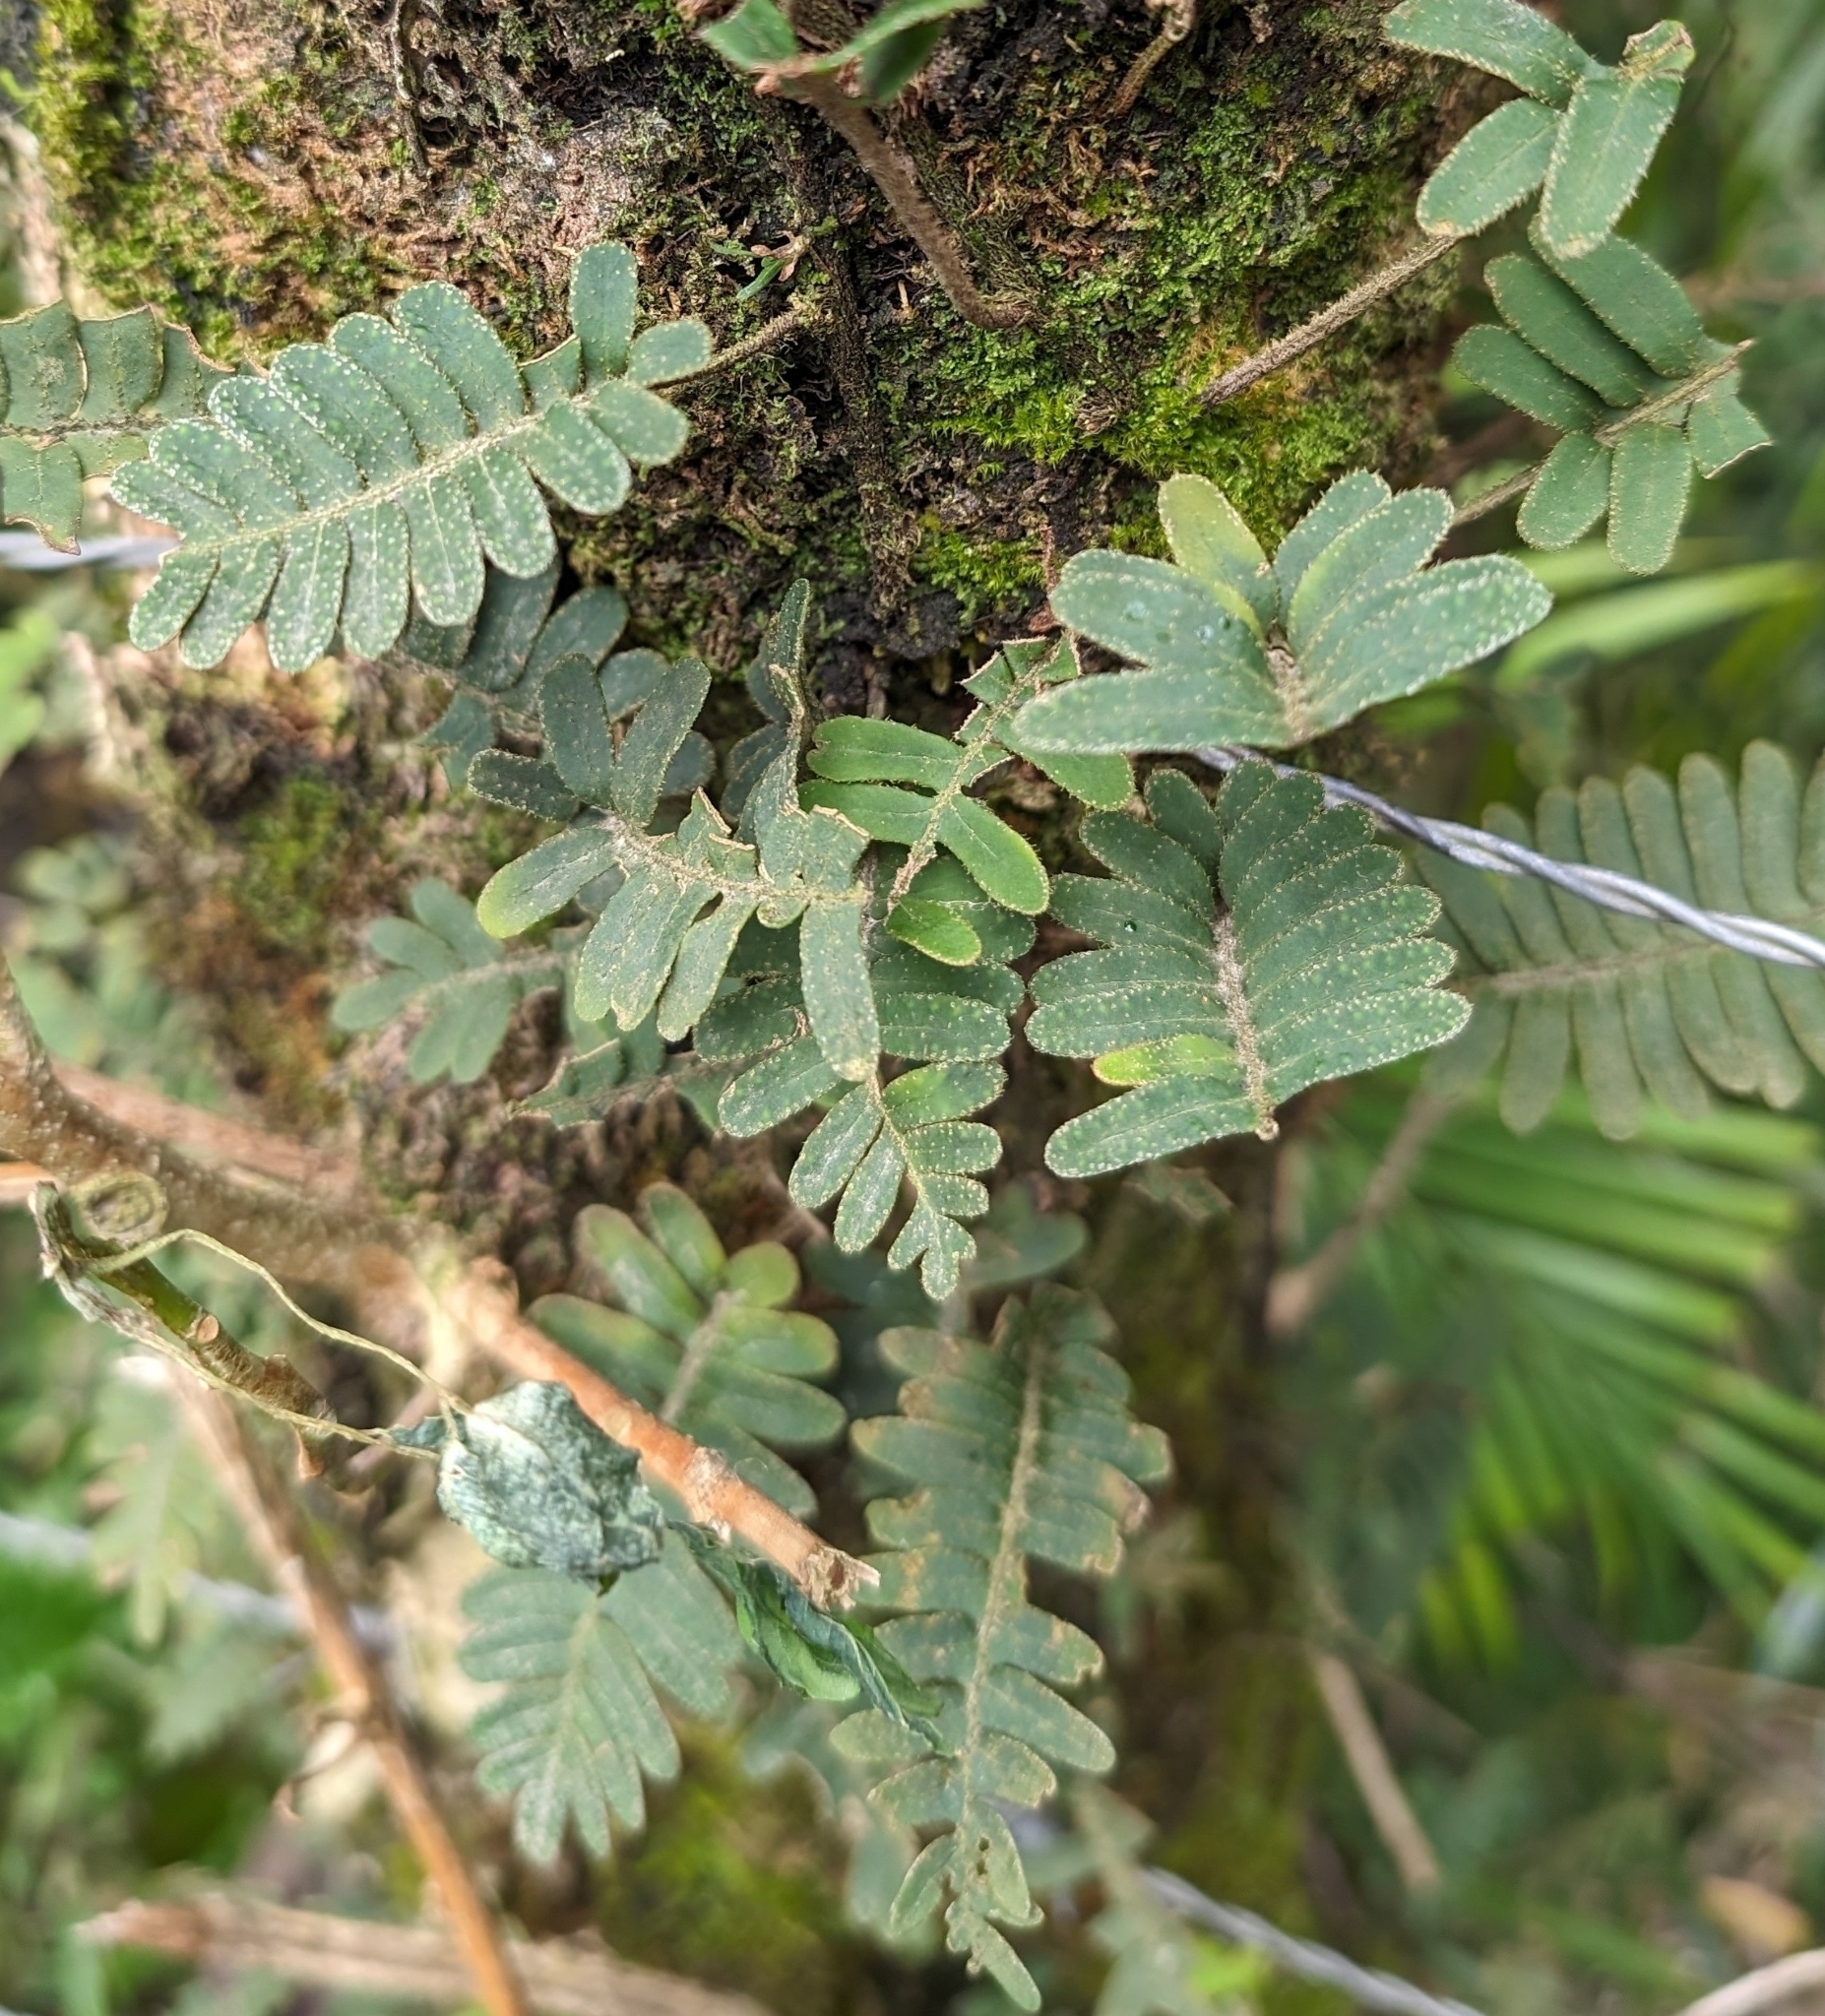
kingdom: Plantae
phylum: Tracheophyta
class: Polypodiopsida
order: Polypodiales
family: Polypodiaceae
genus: Pleopeltis
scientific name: Pleopeltis michauxiana
